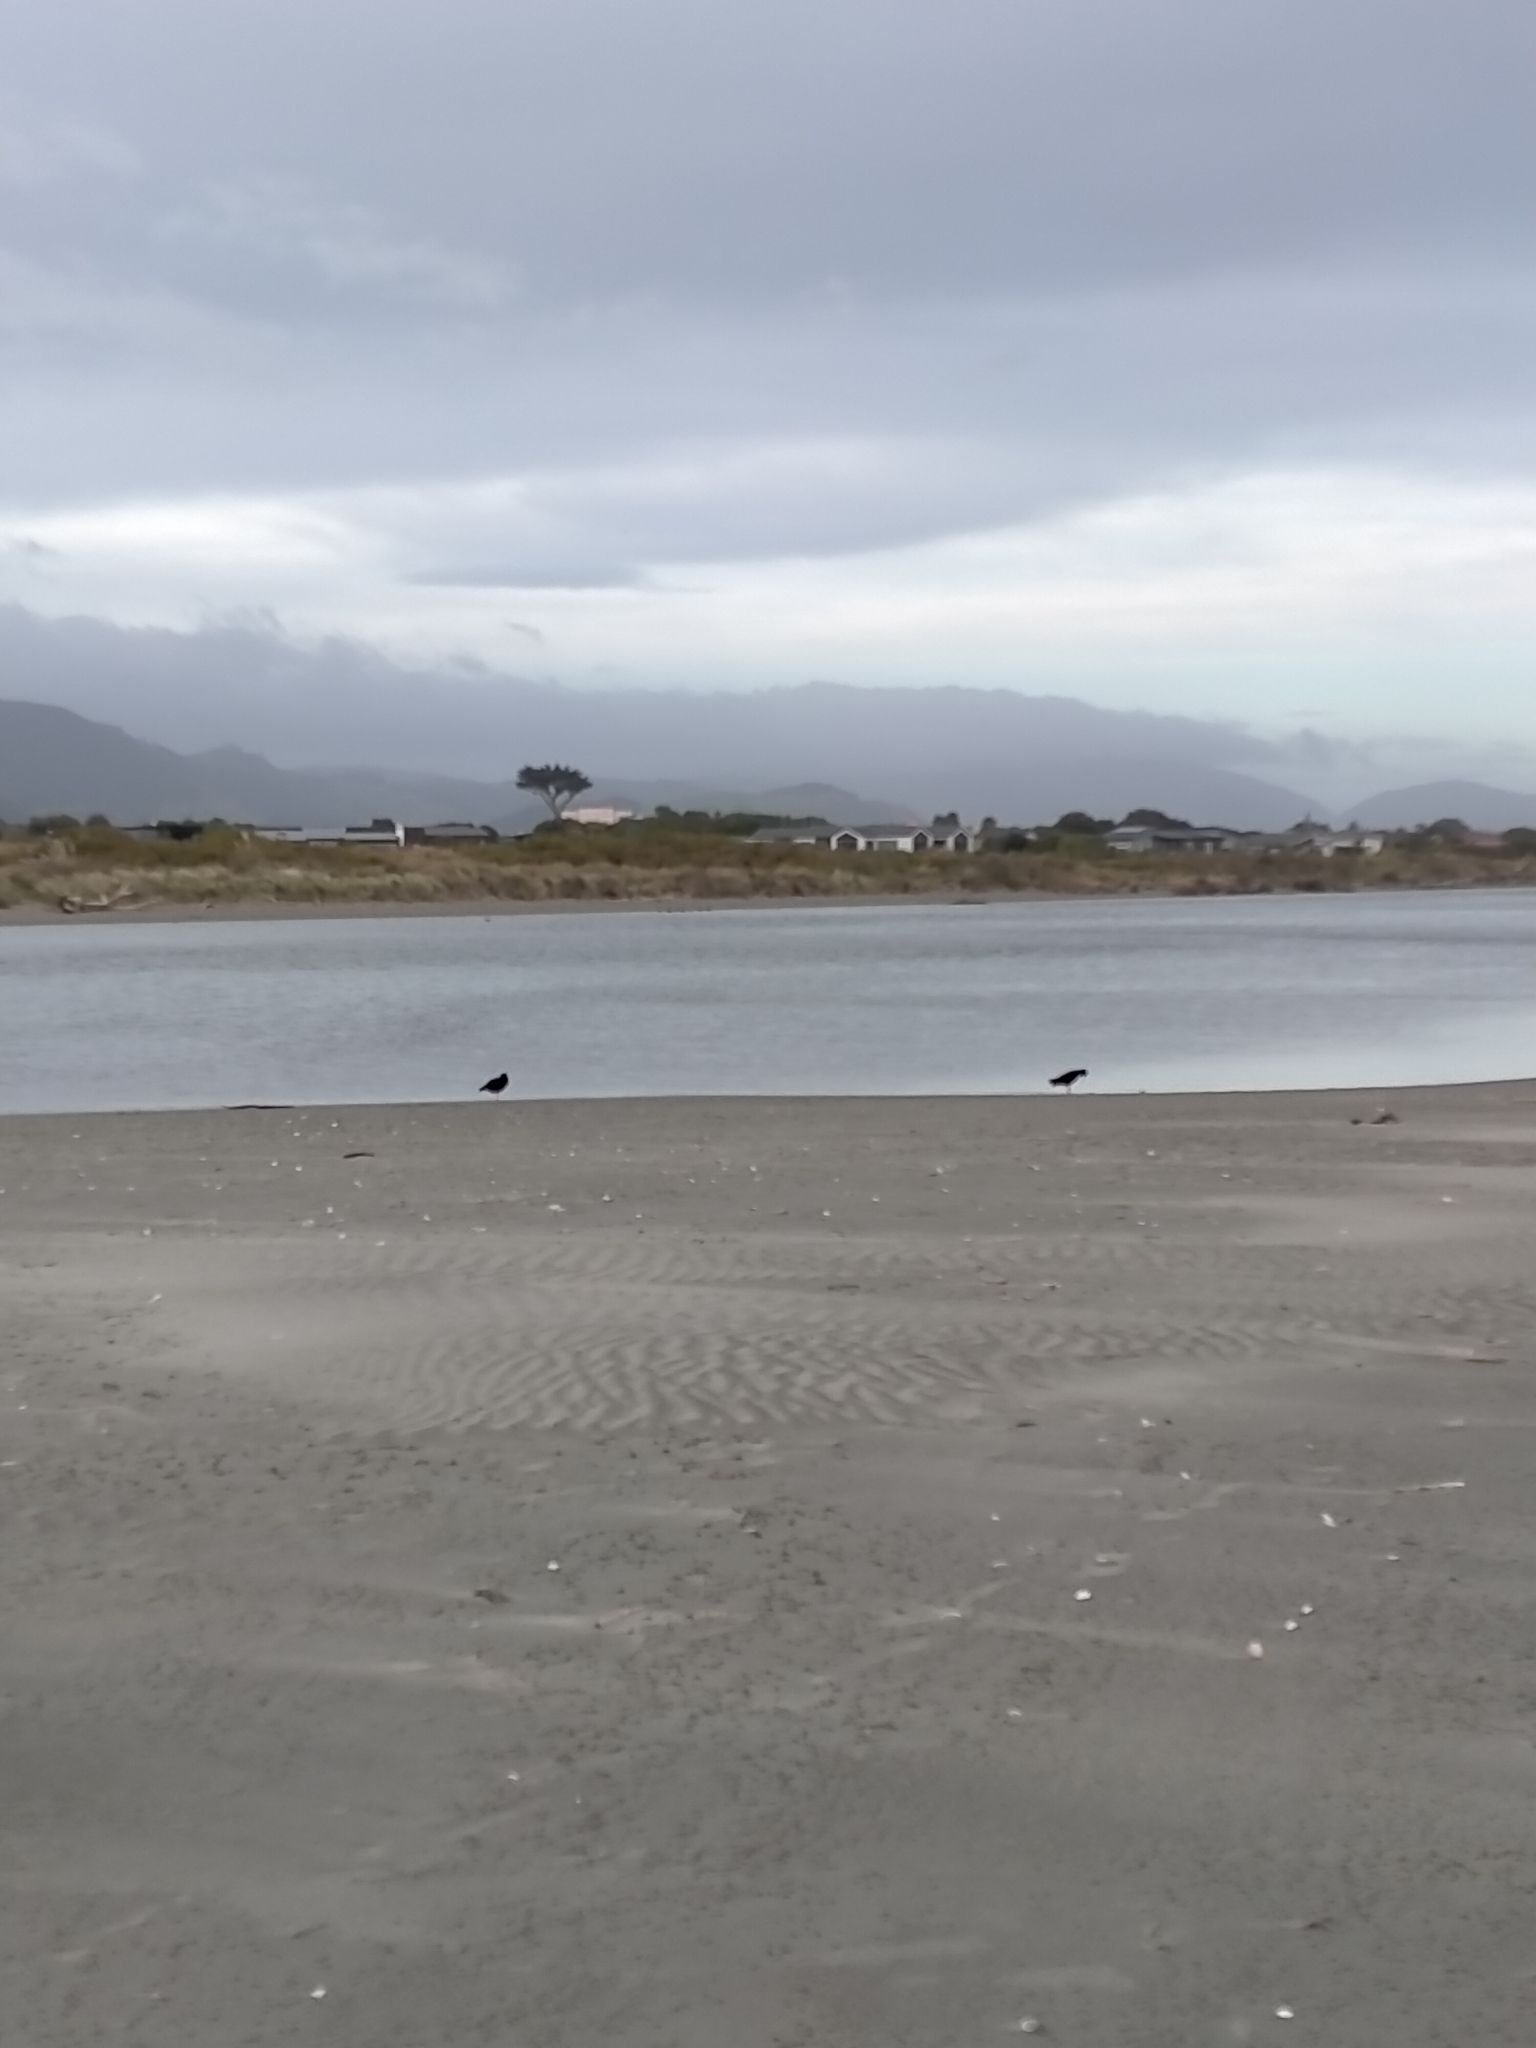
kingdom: Animalia
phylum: Chordata
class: Aves
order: Charadriiformes
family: Haematopodidae
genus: Haematopus
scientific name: Haematopus unicolor
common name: Variable oystercatcher
